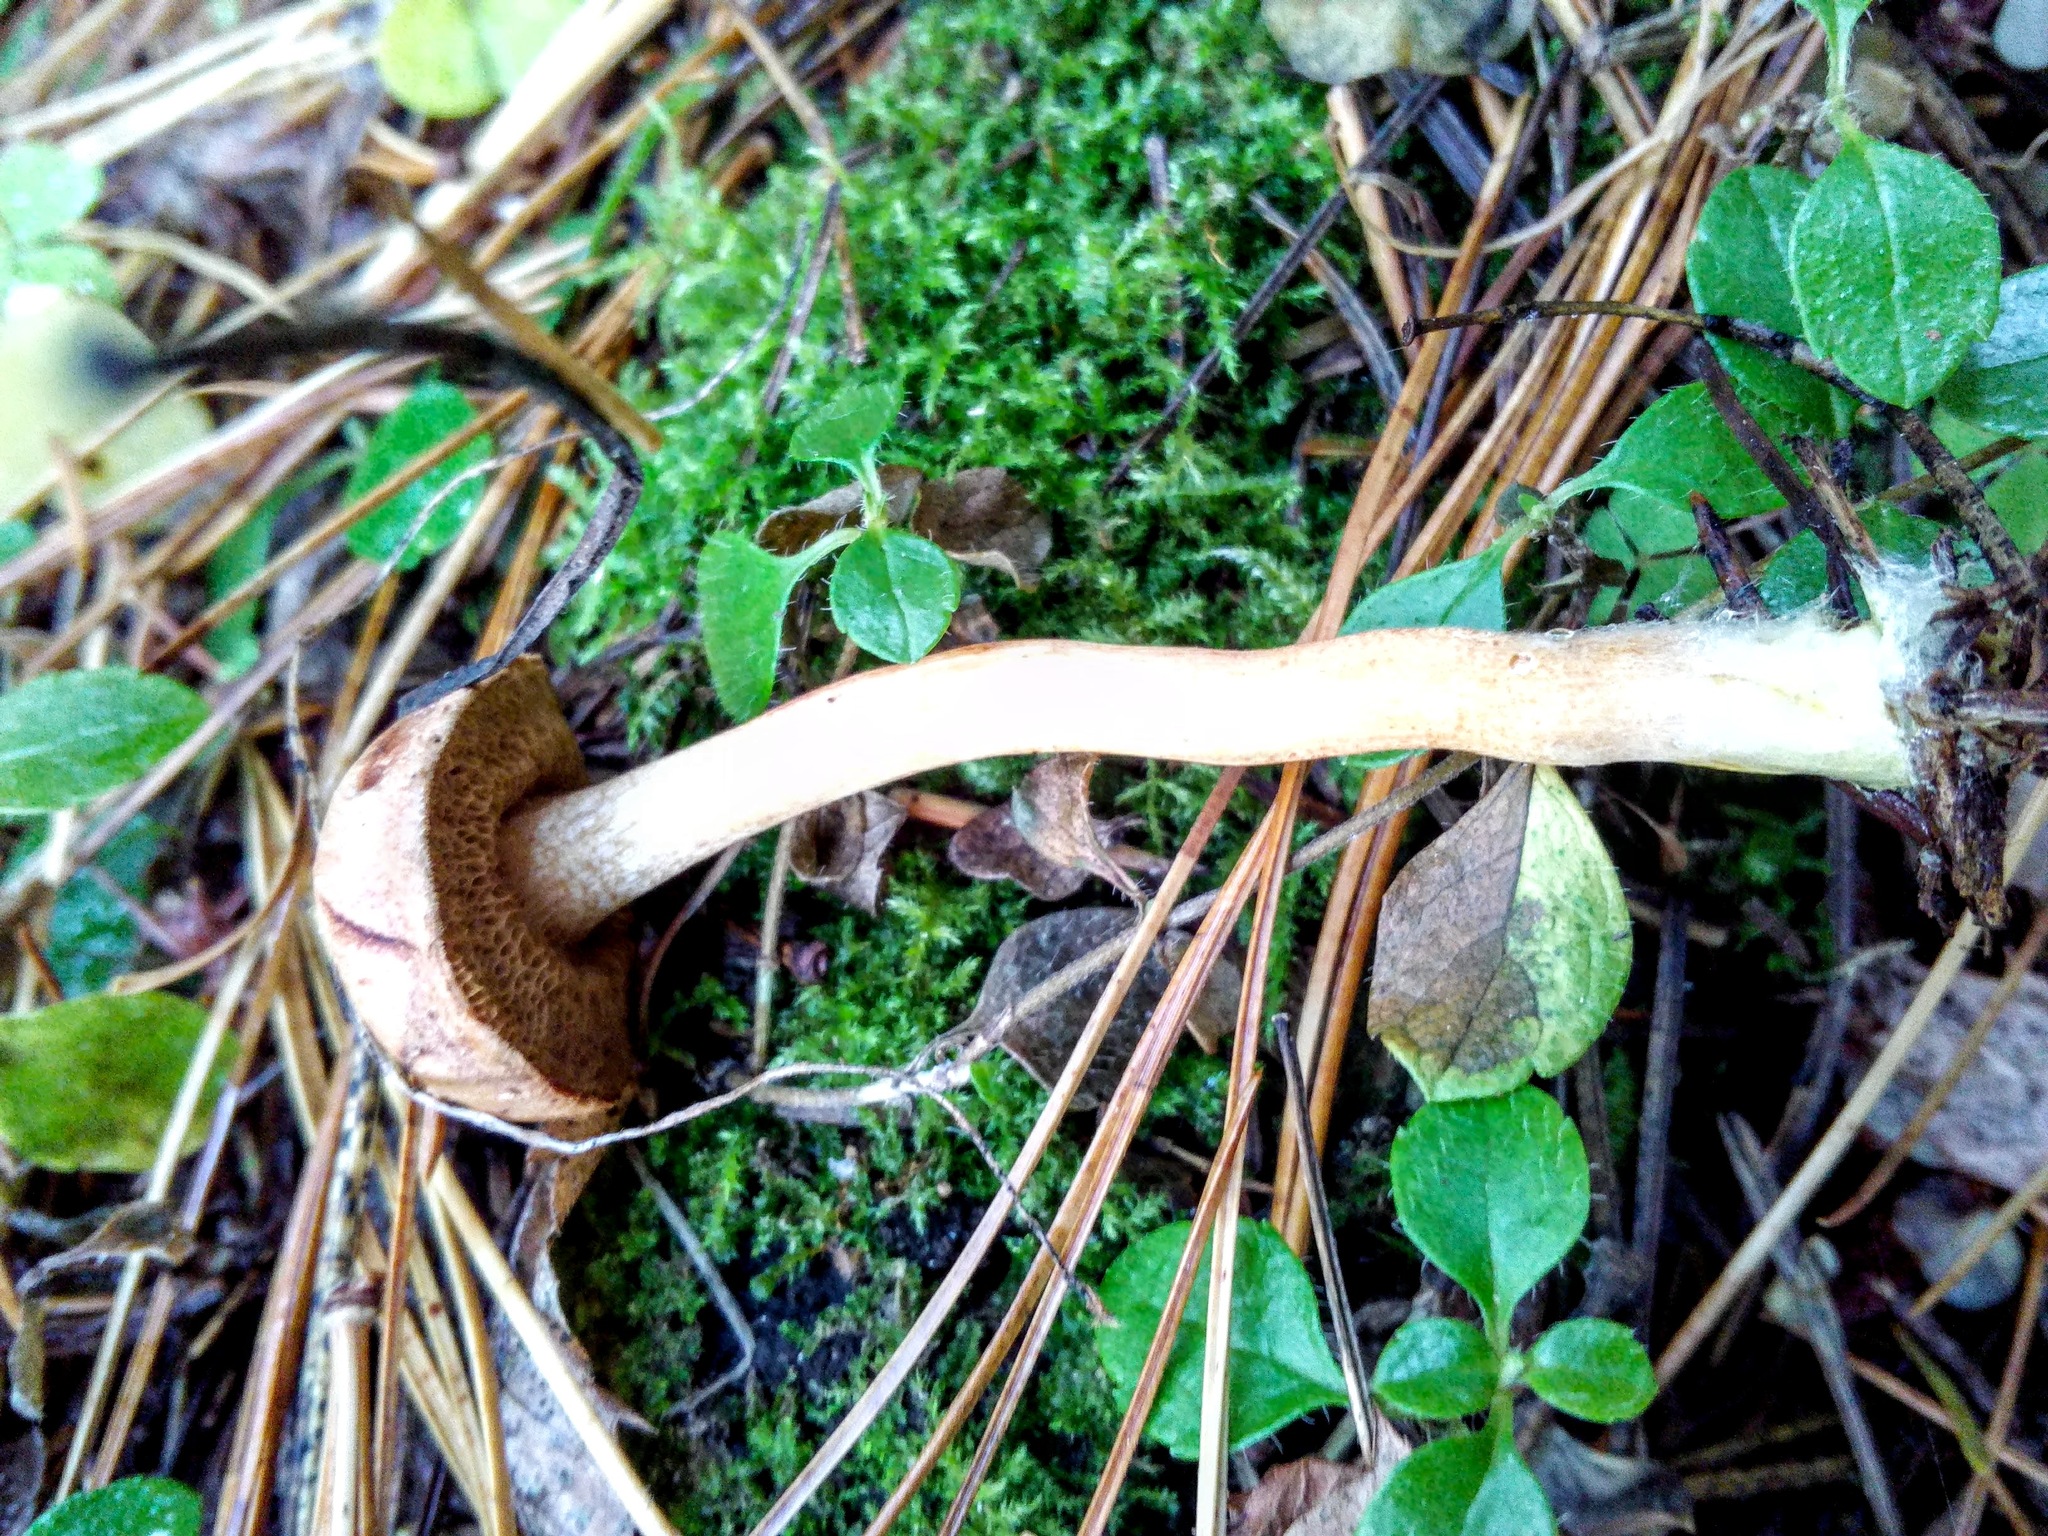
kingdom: Fungi
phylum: Basidiomycota
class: Agaricomycetes
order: Boletales
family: Boletaceae
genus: Chalciporus
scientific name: Chalciporus piperatus
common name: Peppery bolete
